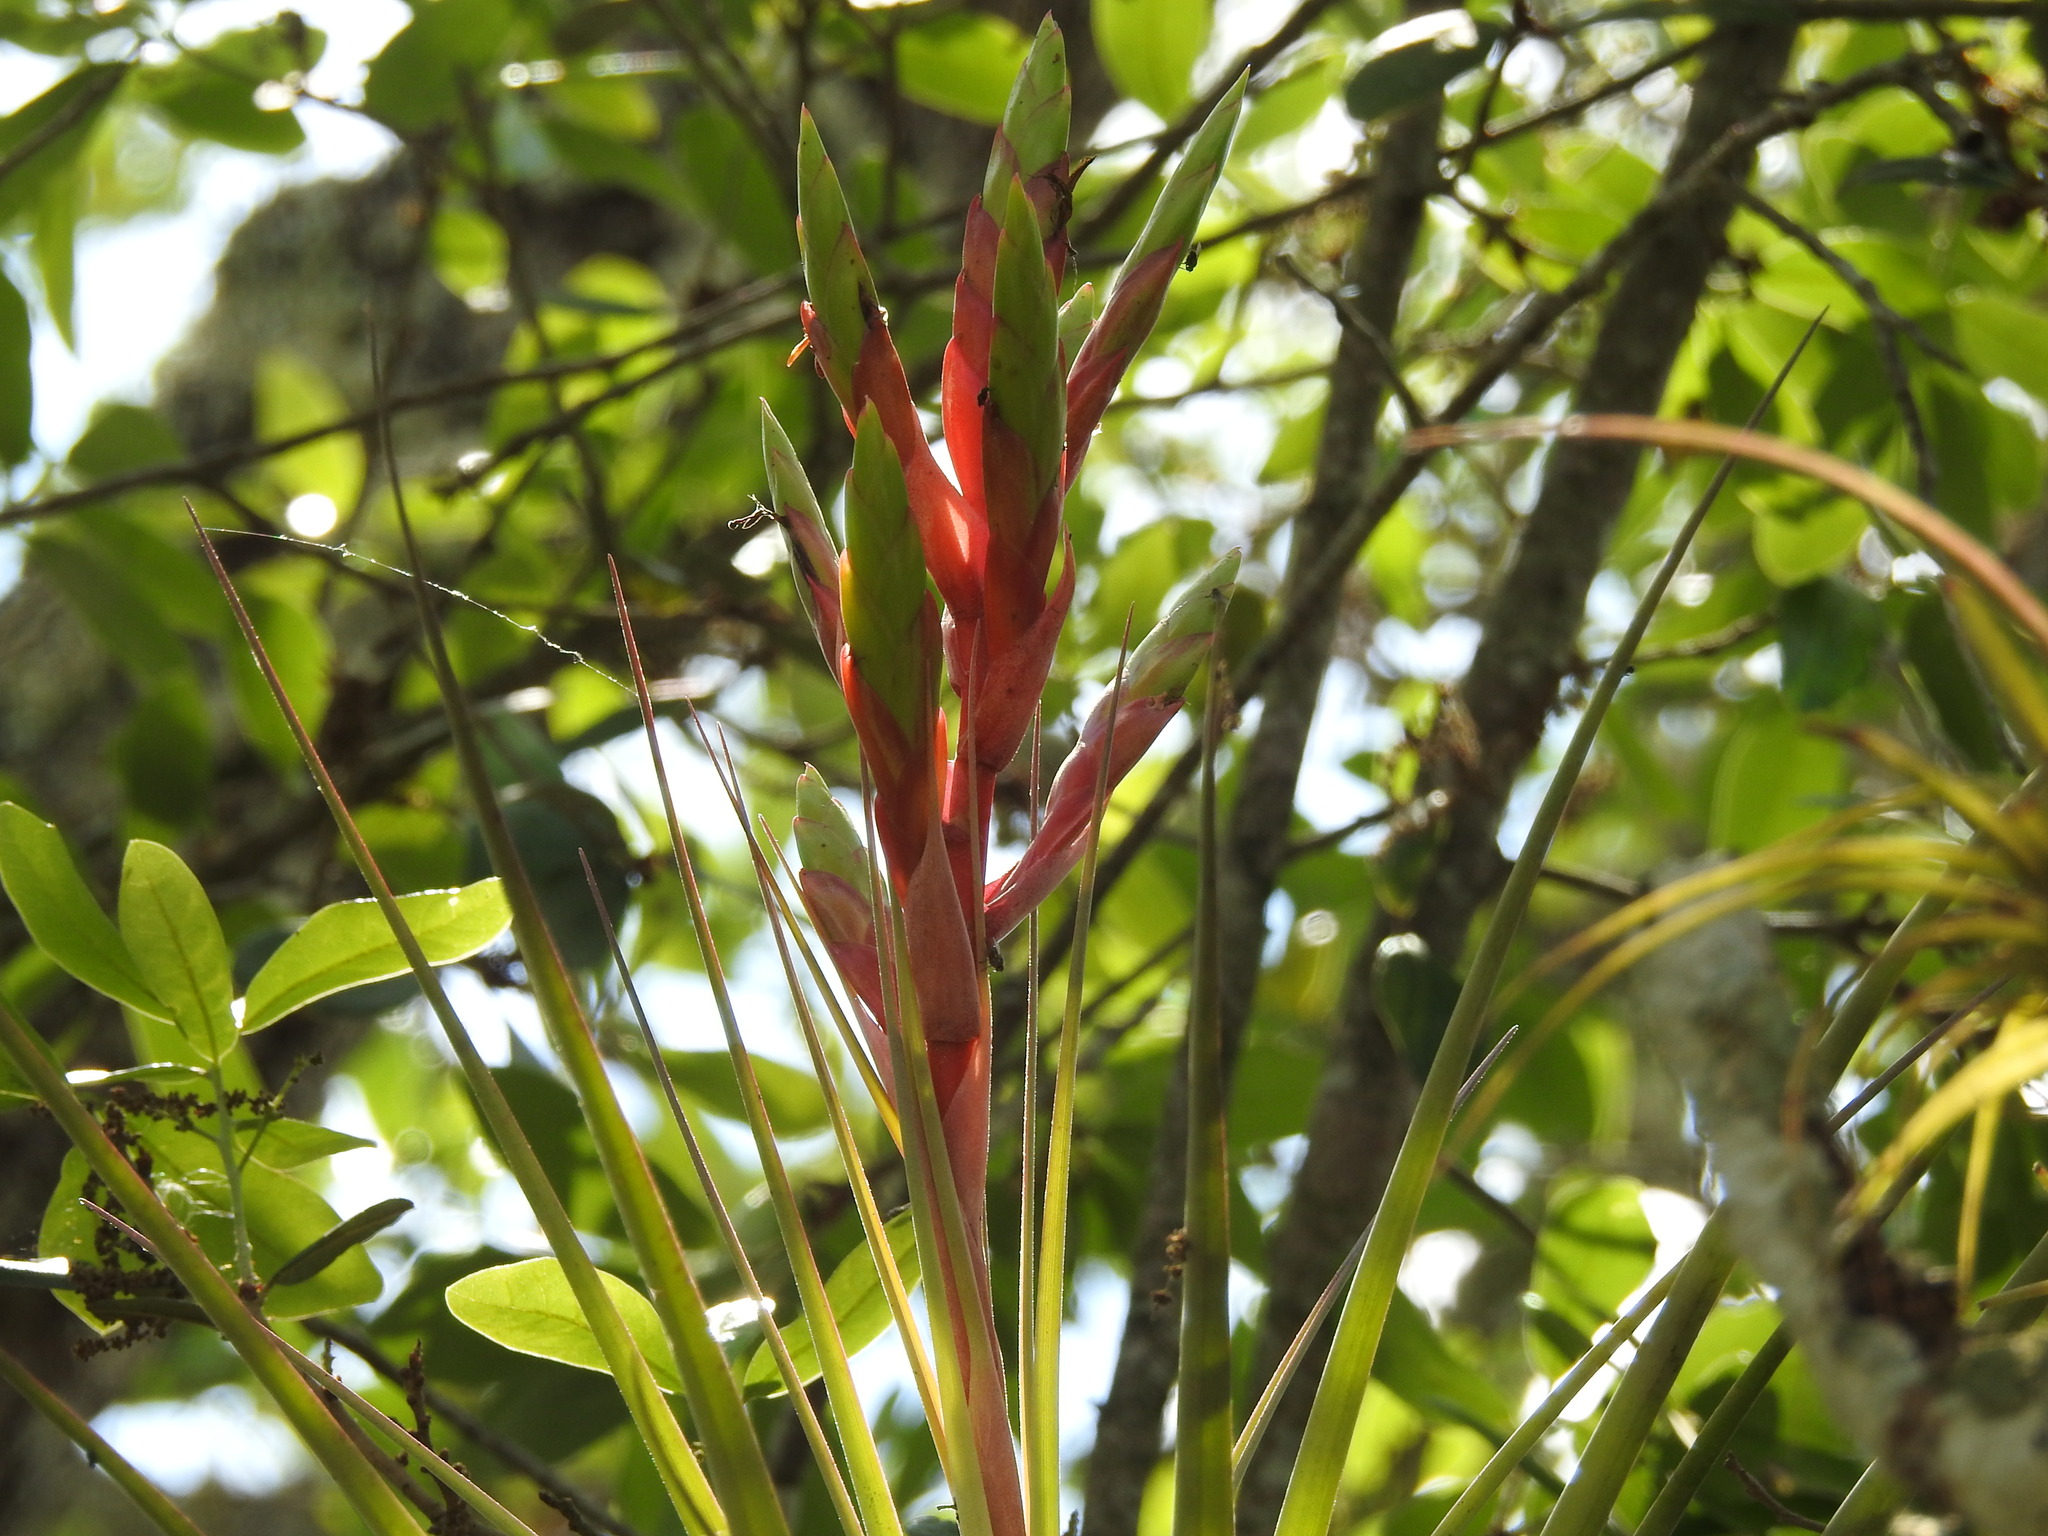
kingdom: Plantae
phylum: Tracheophyta
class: Liliopsida
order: Poales
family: Bromeliaceae
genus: Tillandsia
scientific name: Tillandsia fasciculata
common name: Giant airplant
